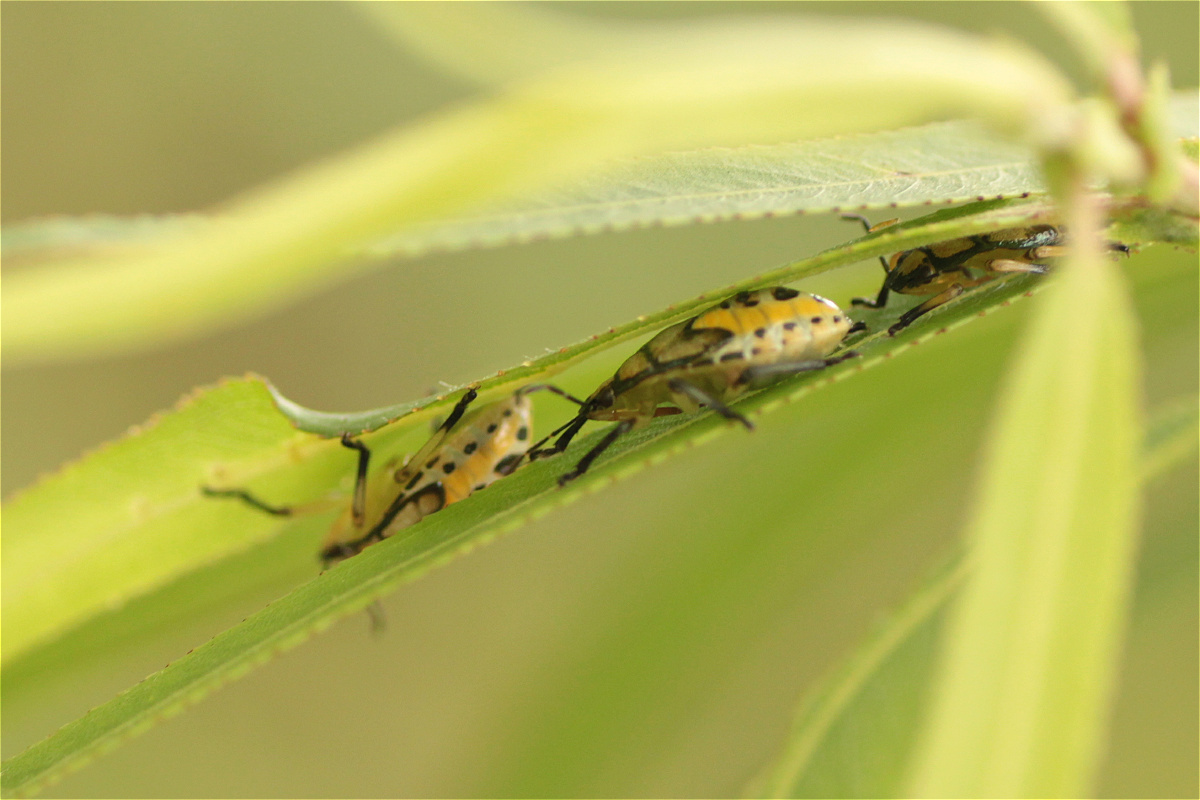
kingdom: Animalia
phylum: Arthropoda
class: Insecta
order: Hemiptera
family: Pentatomidae
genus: Podisus
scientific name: Podisus
